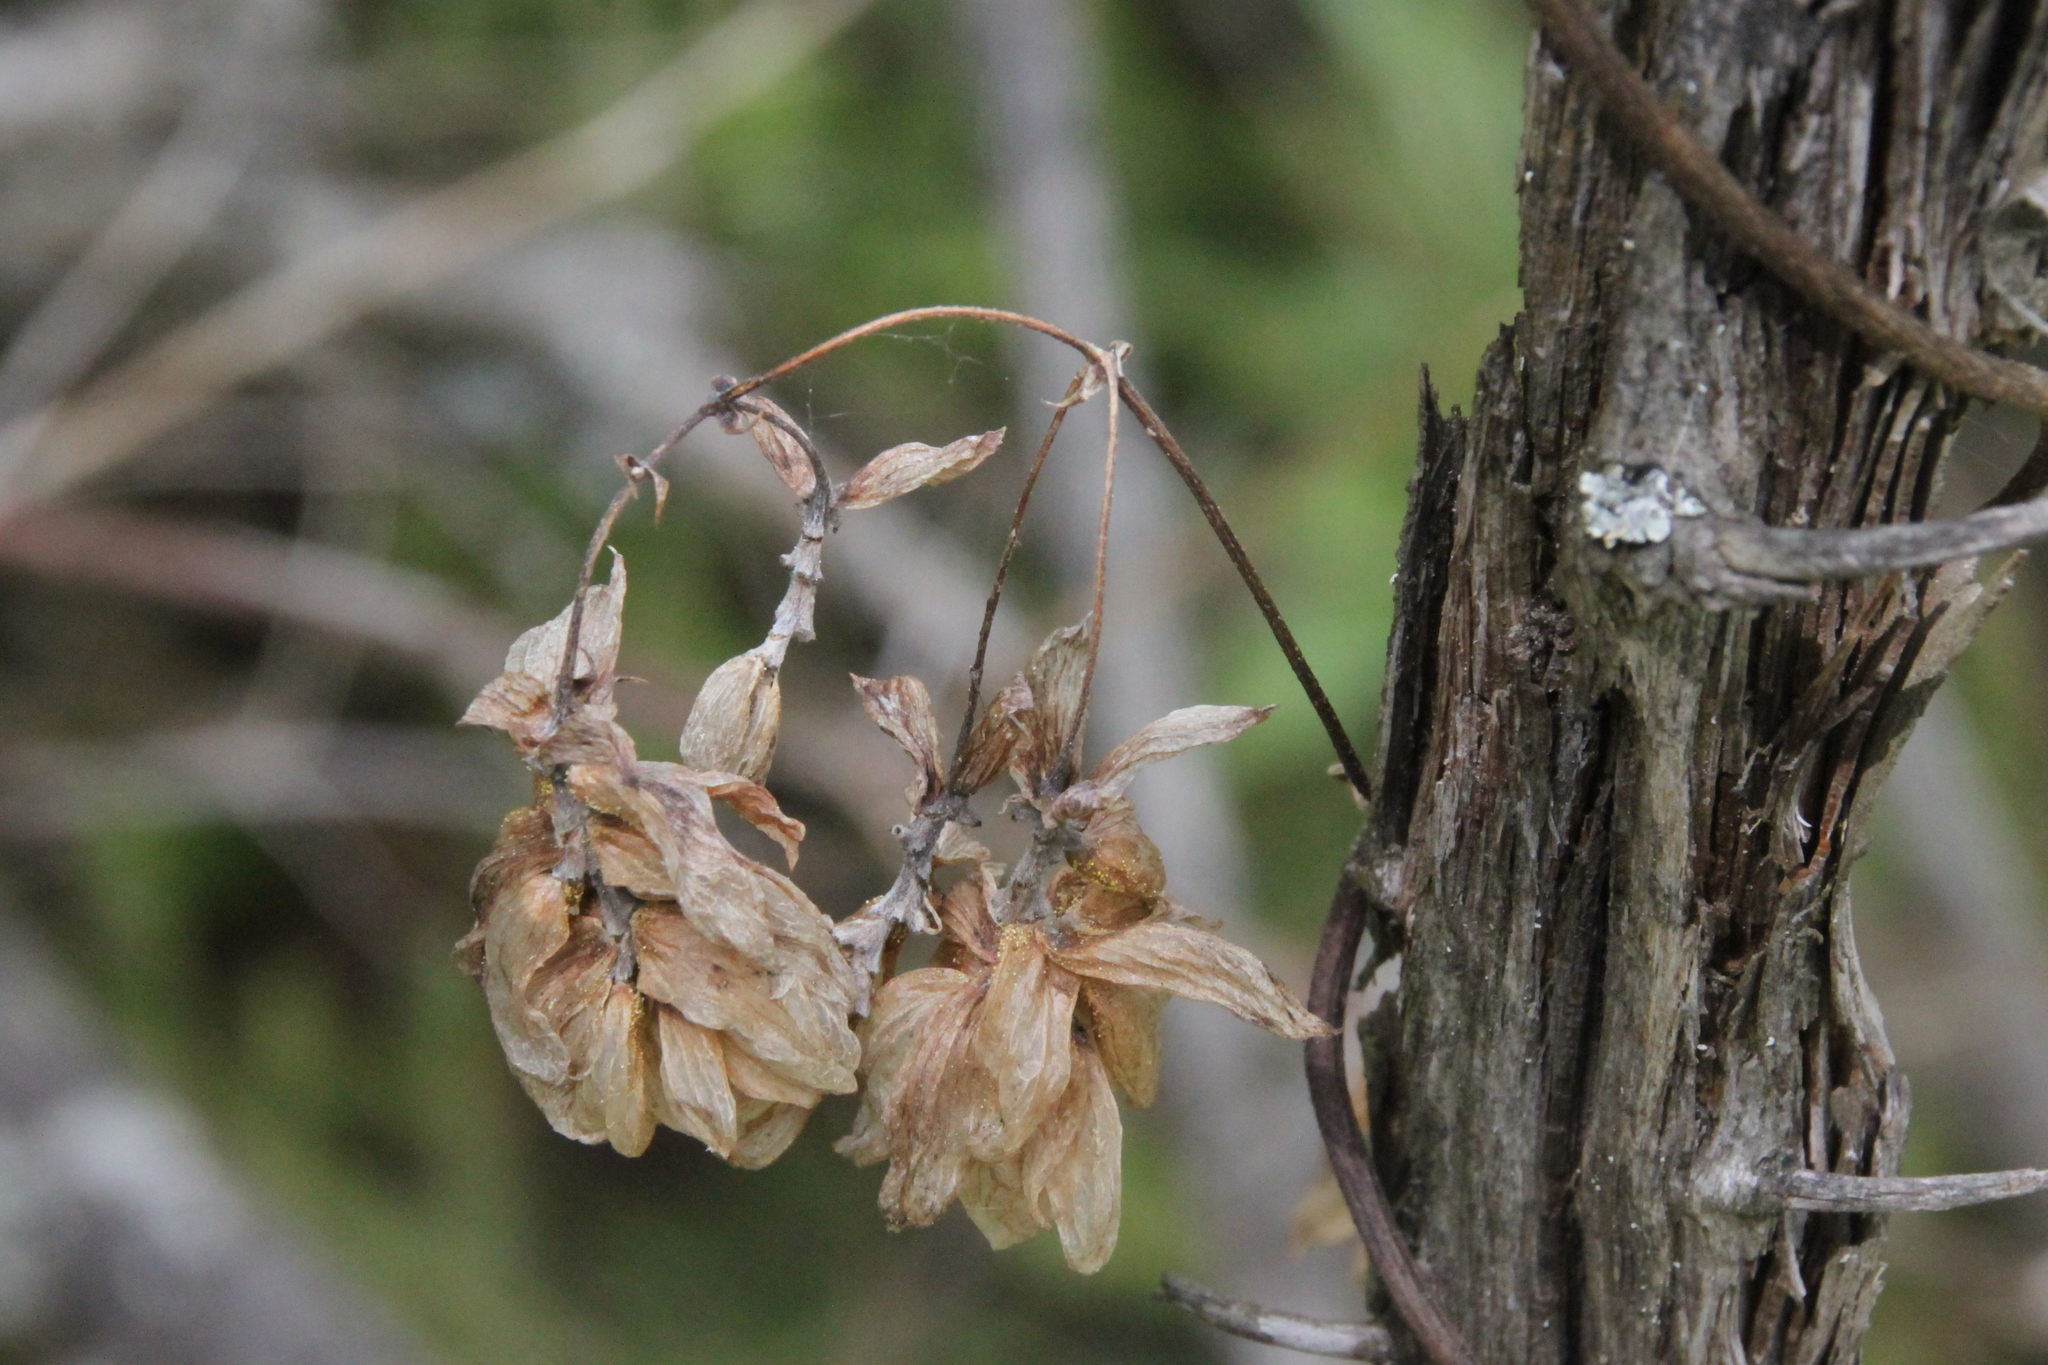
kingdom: Plantae
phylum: Tracheophyta
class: Magnoliopsida
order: Rosales
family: Cannabaceae
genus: Humulus
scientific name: Humulus lupulus
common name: Hop
